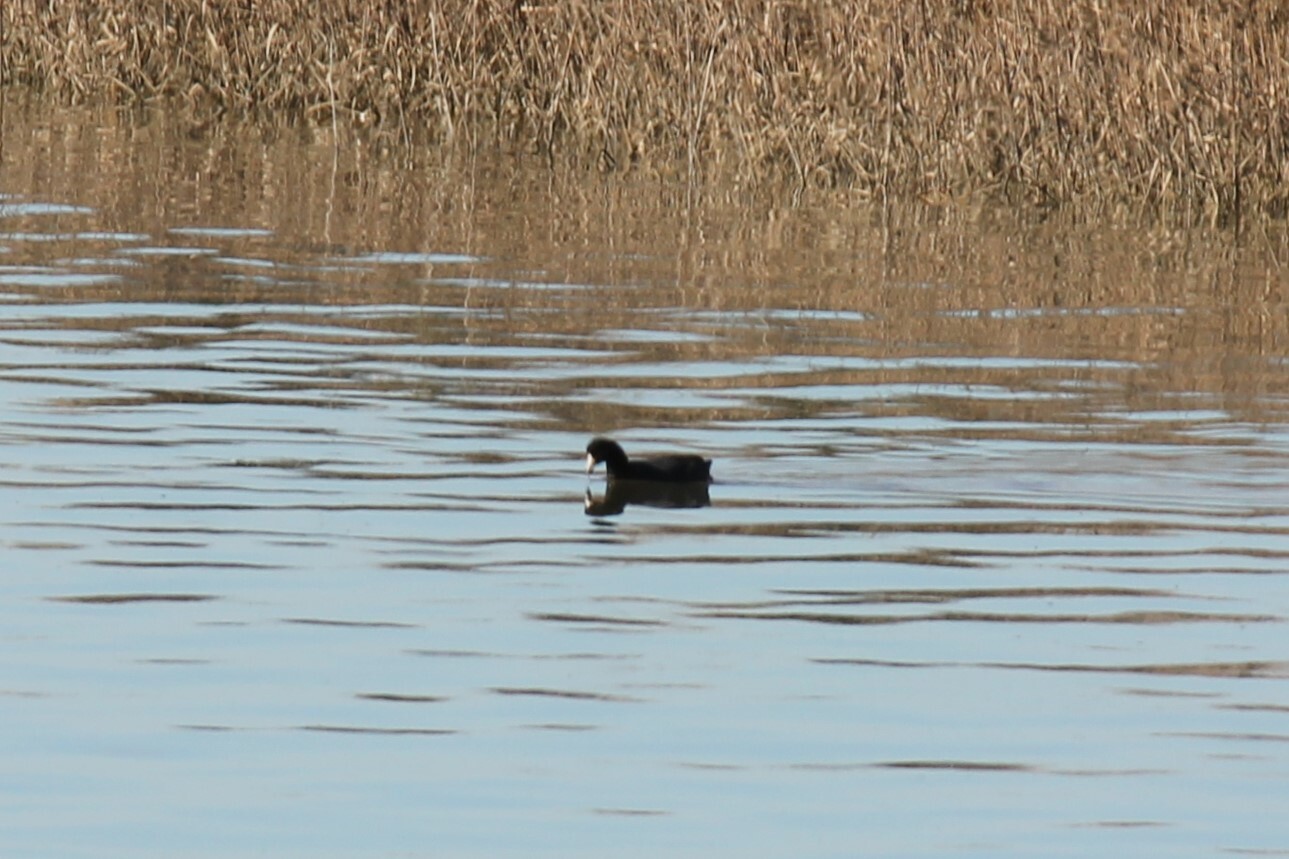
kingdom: Animalia
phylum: Chordata
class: Aves
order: Gruiformes
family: Rallidae
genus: Fulica
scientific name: Fulica americana
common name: American coot
